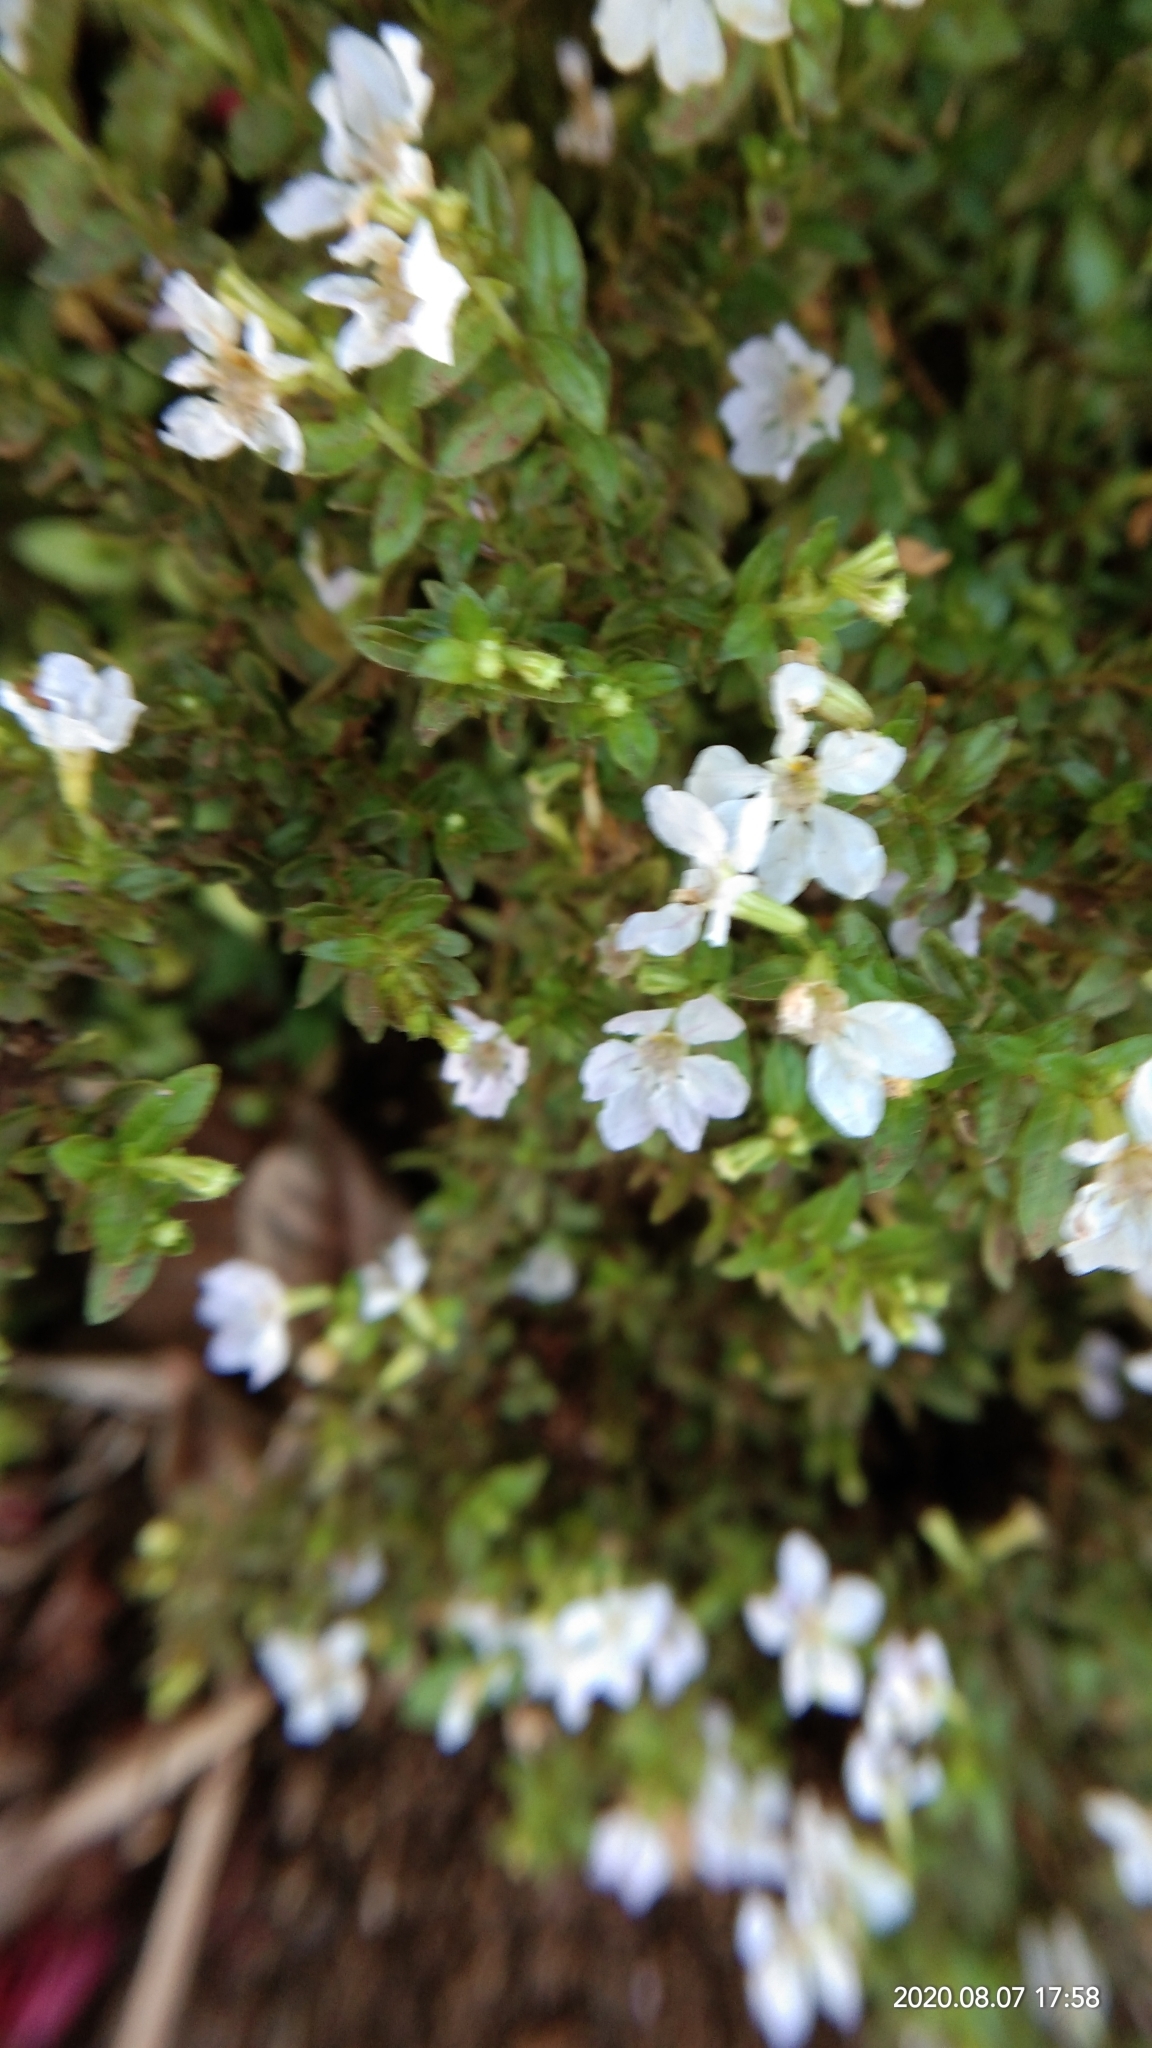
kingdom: Plantae
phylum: Tracheophyta
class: Magnoliopsida
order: Lamiales
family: Plantaginaceae
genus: Bacopa
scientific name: Bacopa monnieri
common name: Indian-pennywort
